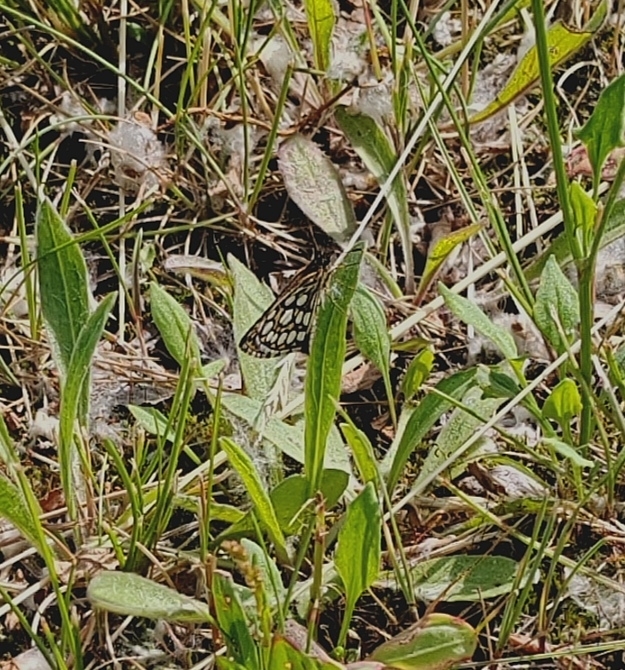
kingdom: Animalia
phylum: Arthropoda
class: Insecta
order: Lepidoptera
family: Hesperiidae
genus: Heteropterus
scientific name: Heteropterus morpheus
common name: Large chequered skipper
